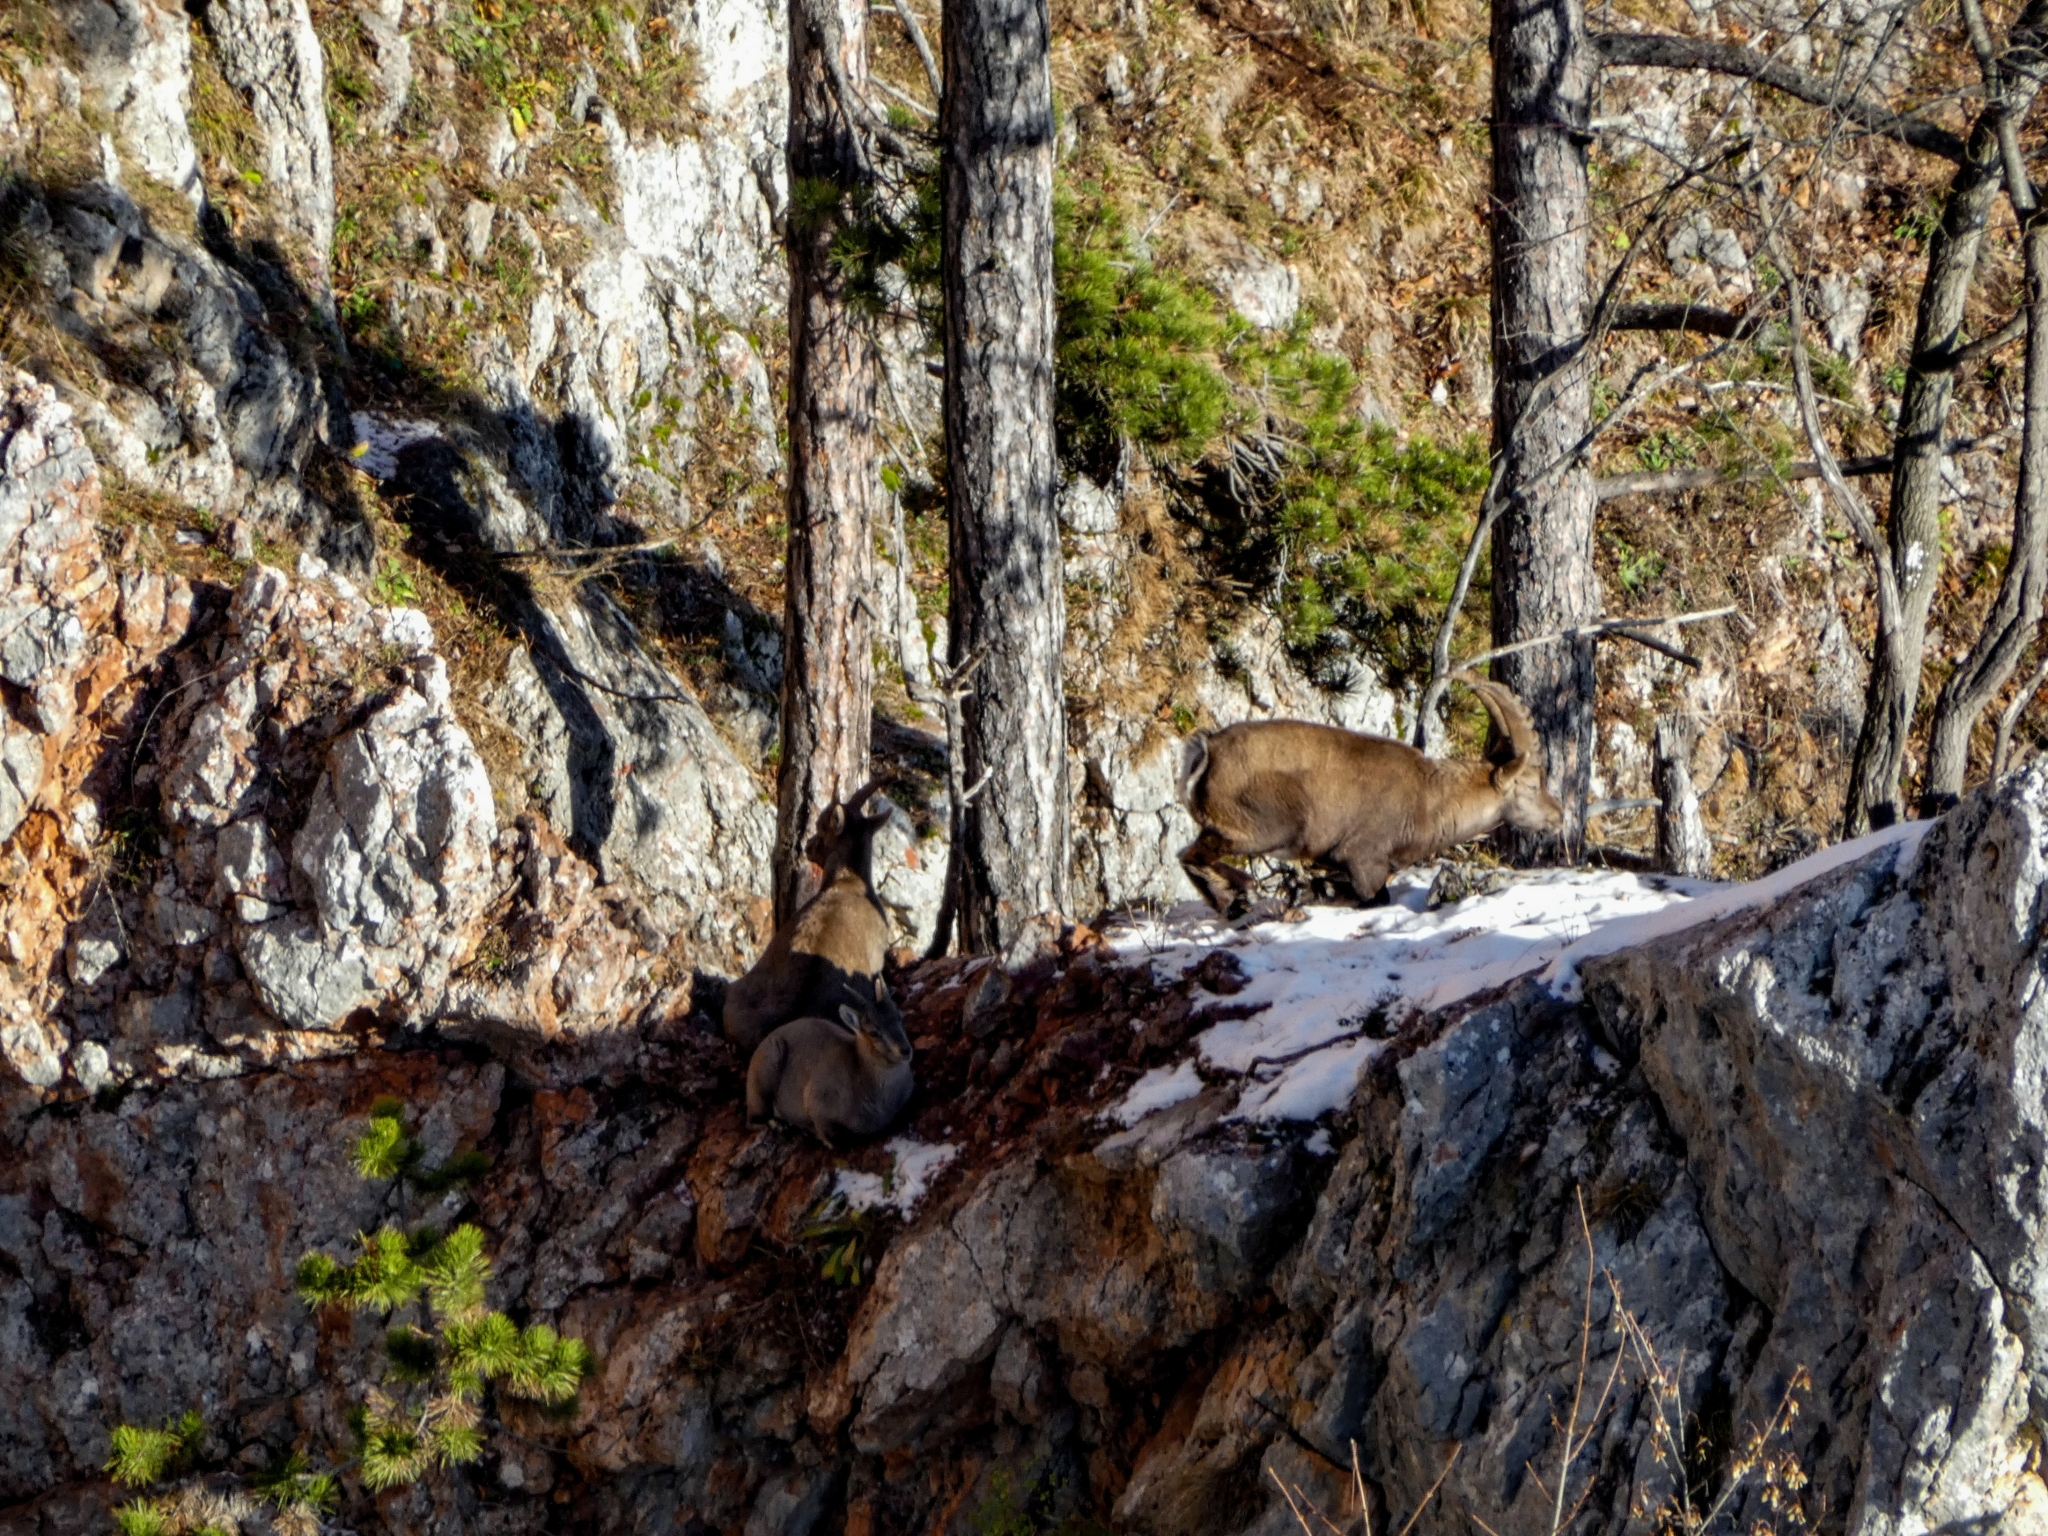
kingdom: Animalia
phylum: Chordata
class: Mammalia
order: Artiodactyla
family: Bovidae
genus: Capra
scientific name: Capra ibex
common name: Alpine ibex
